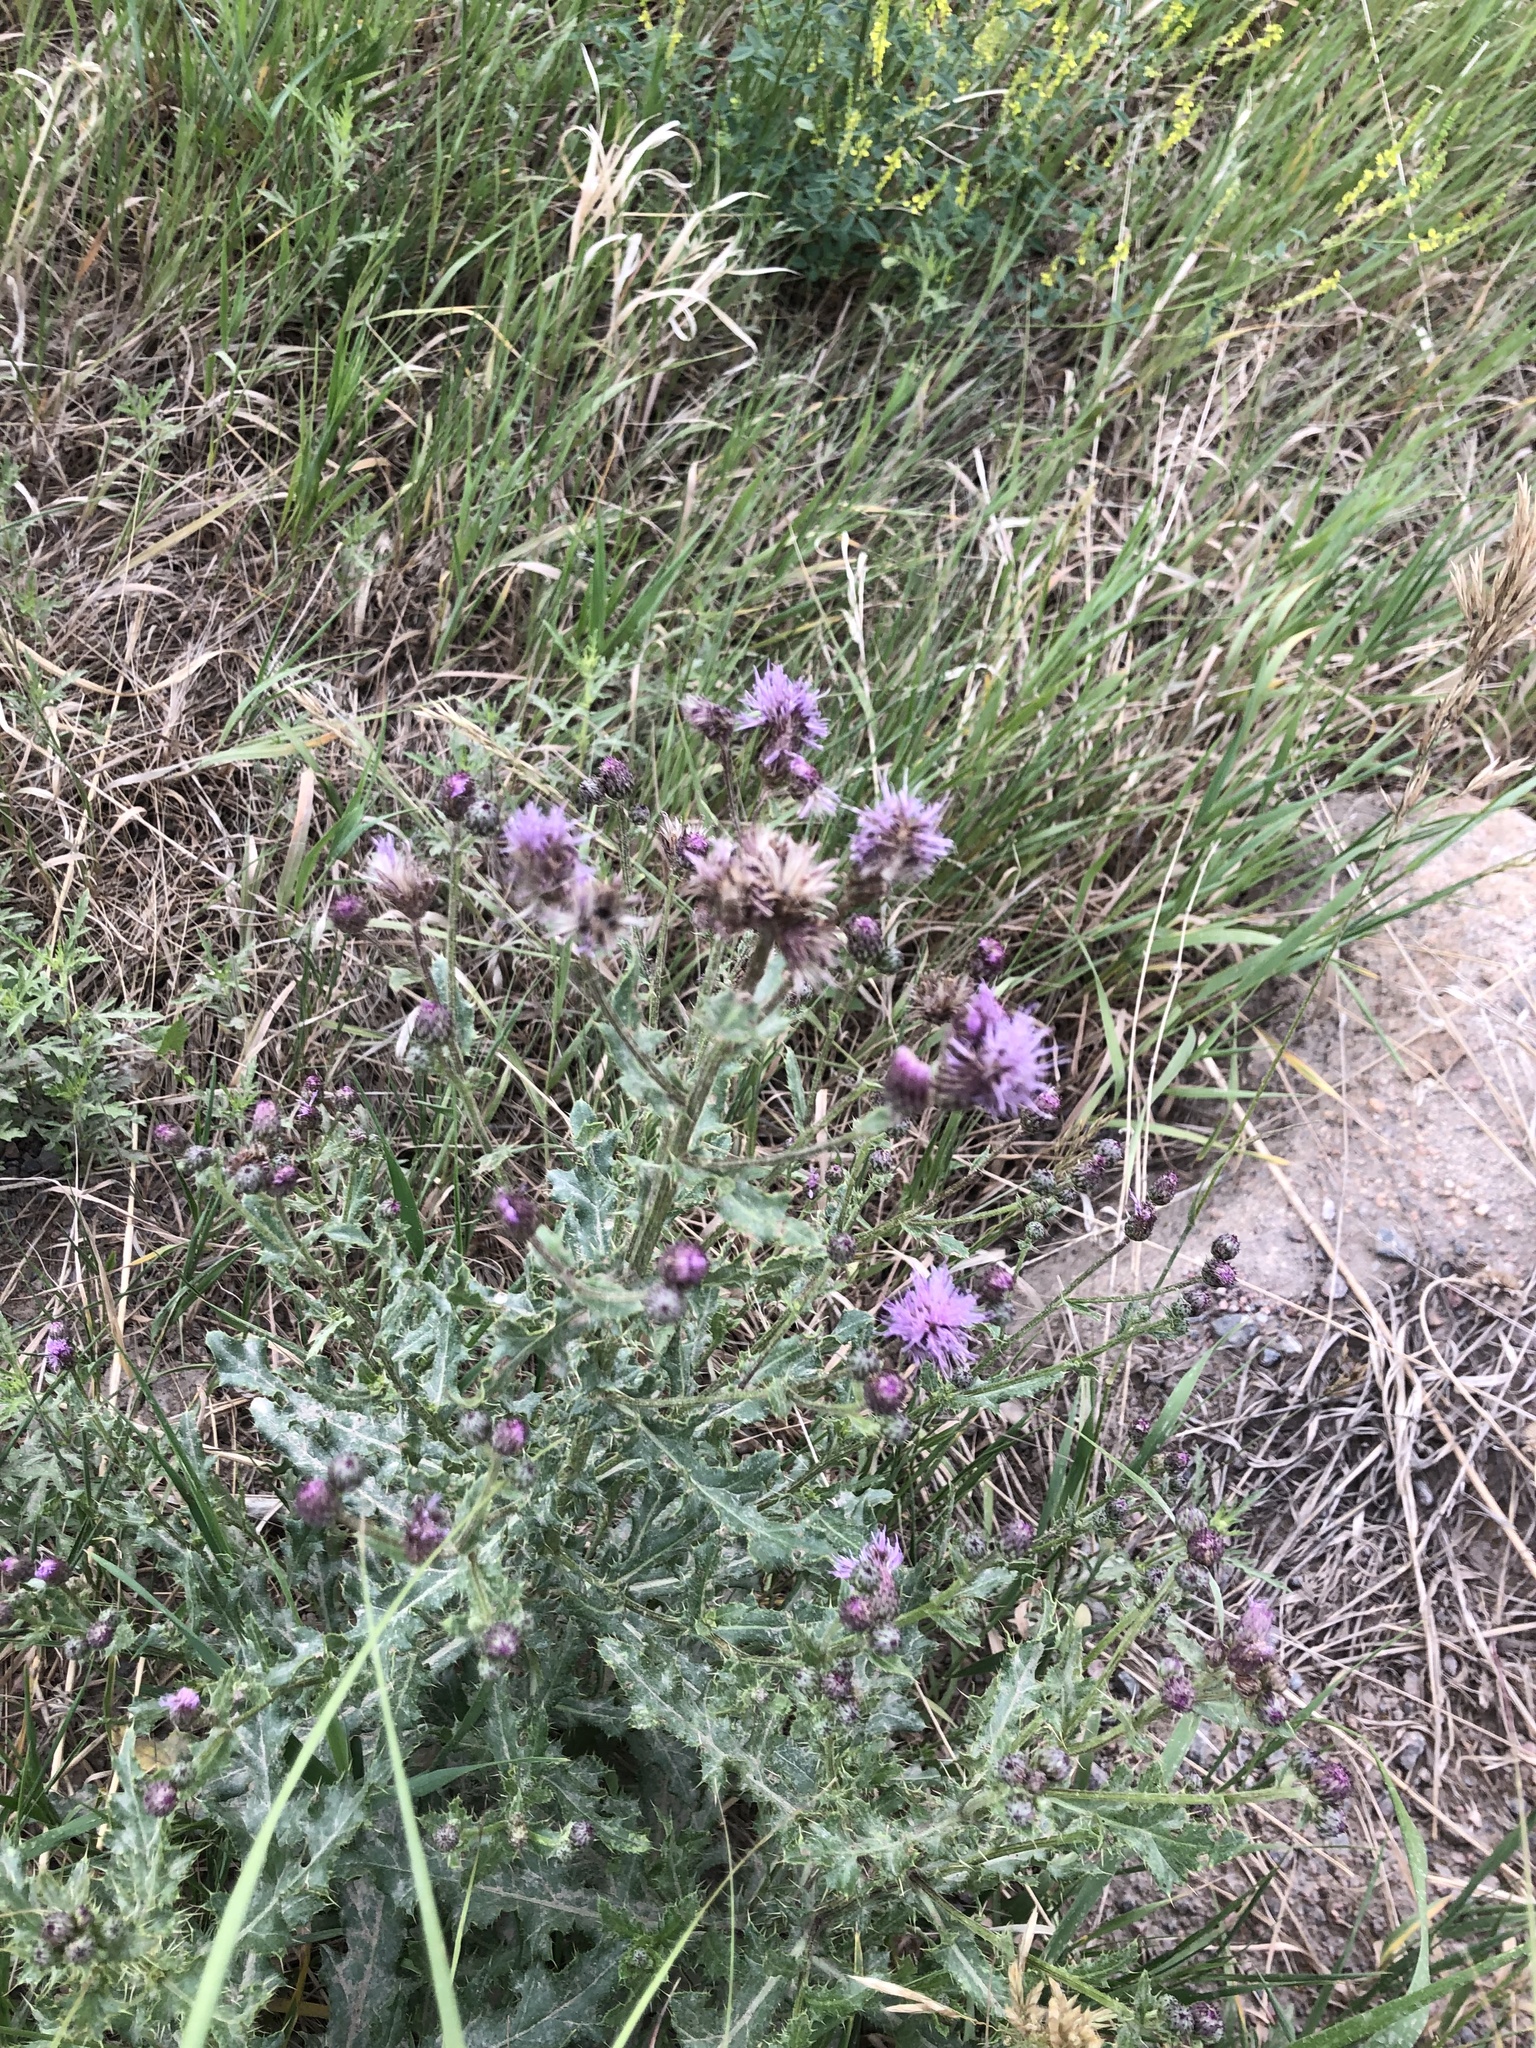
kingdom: Plantae
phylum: Tracheophyta
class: Magnoliopsida
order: Asterales
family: Asteraceae
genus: Cirsium
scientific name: Cirsium arvense
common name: Creeping thistle
